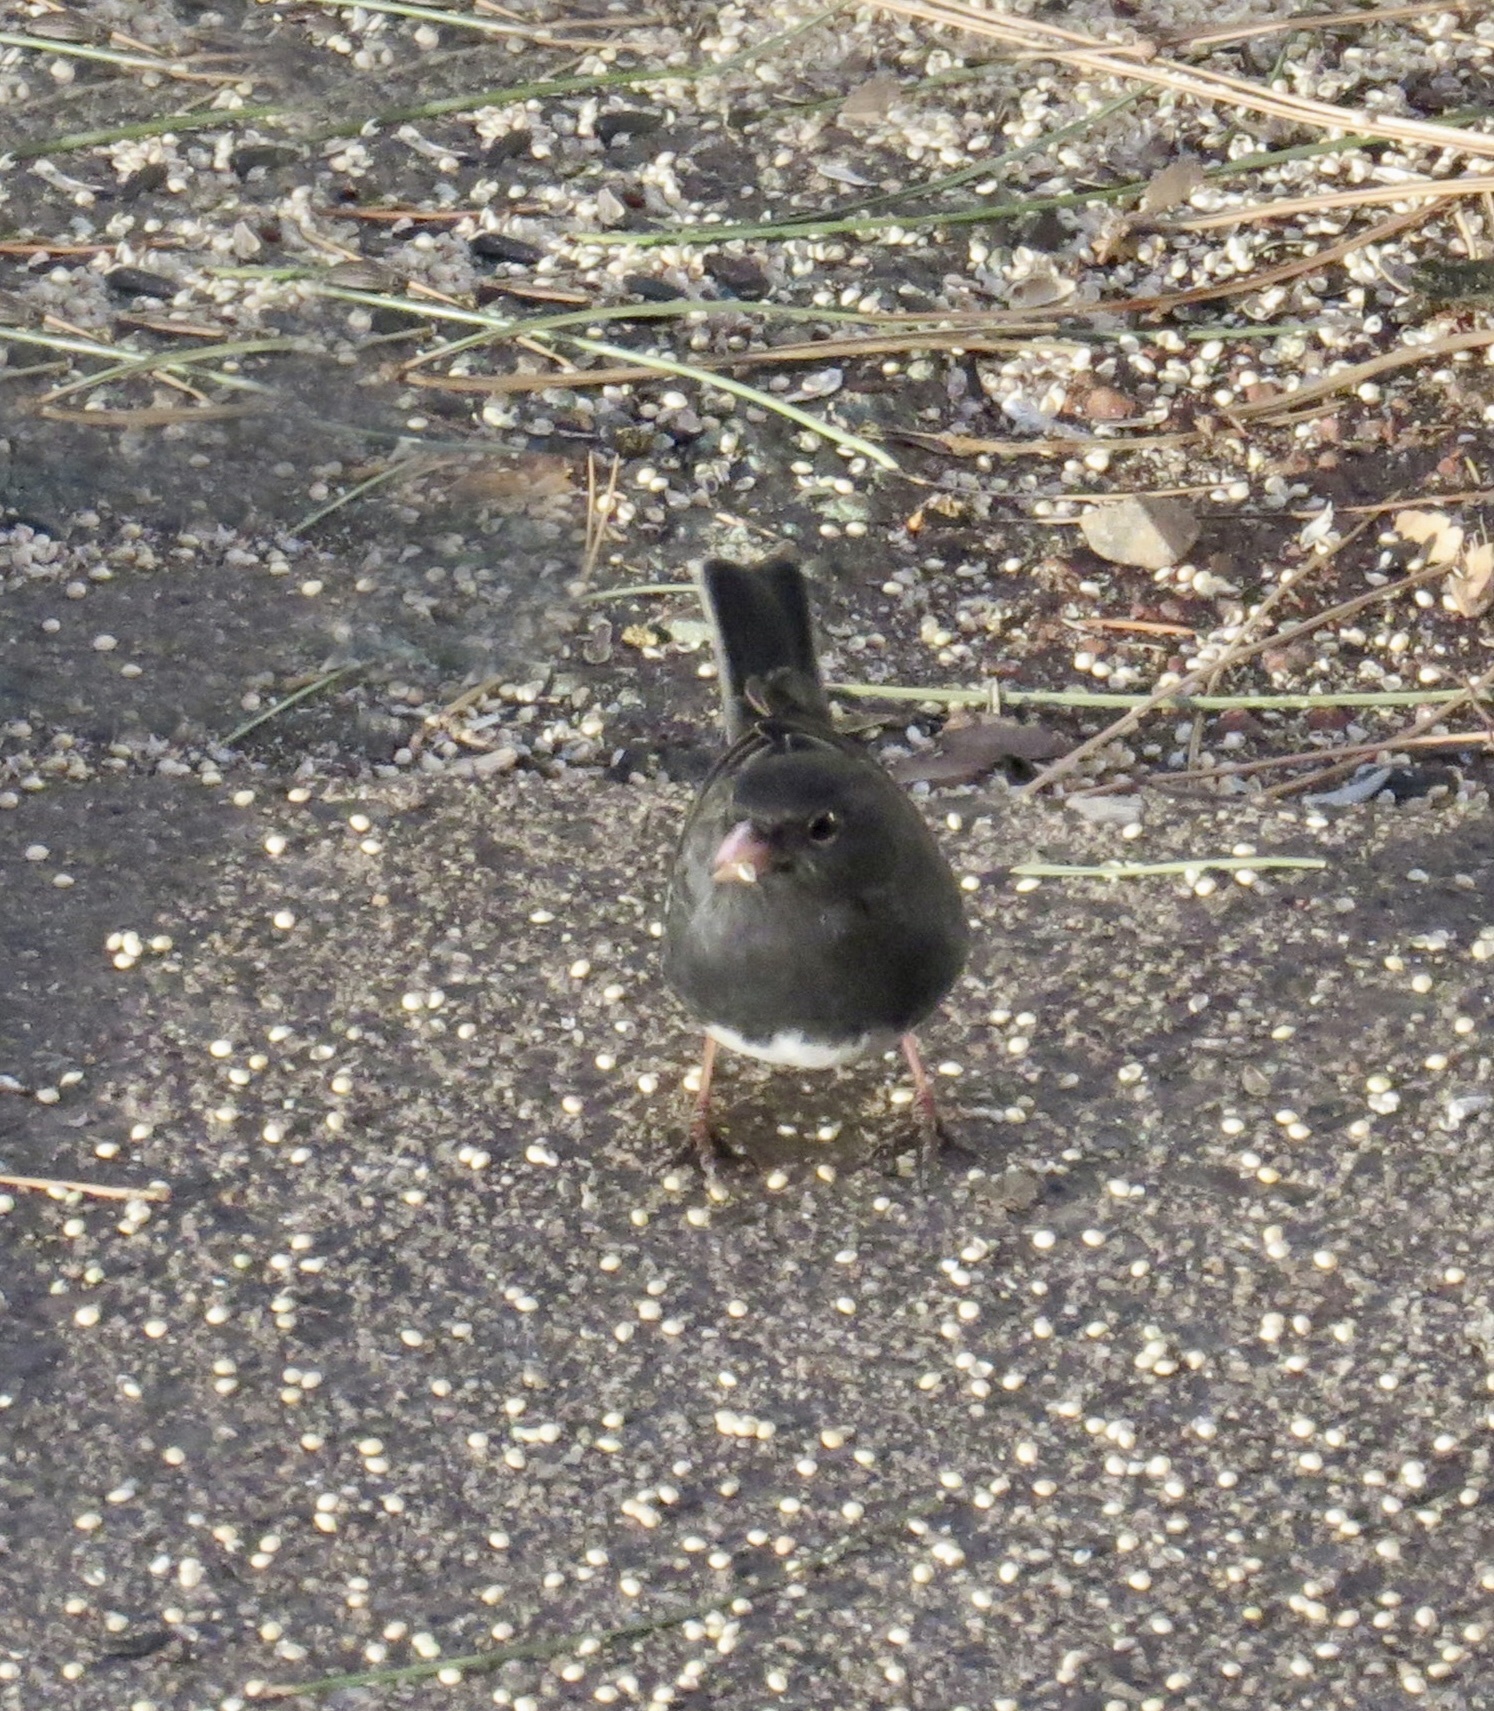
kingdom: Animalia
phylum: Chordata
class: Aves
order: Passeriformes
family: Passerellidae
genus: Junco
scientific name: Junco hyemalis
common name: Dark-eyed junco
